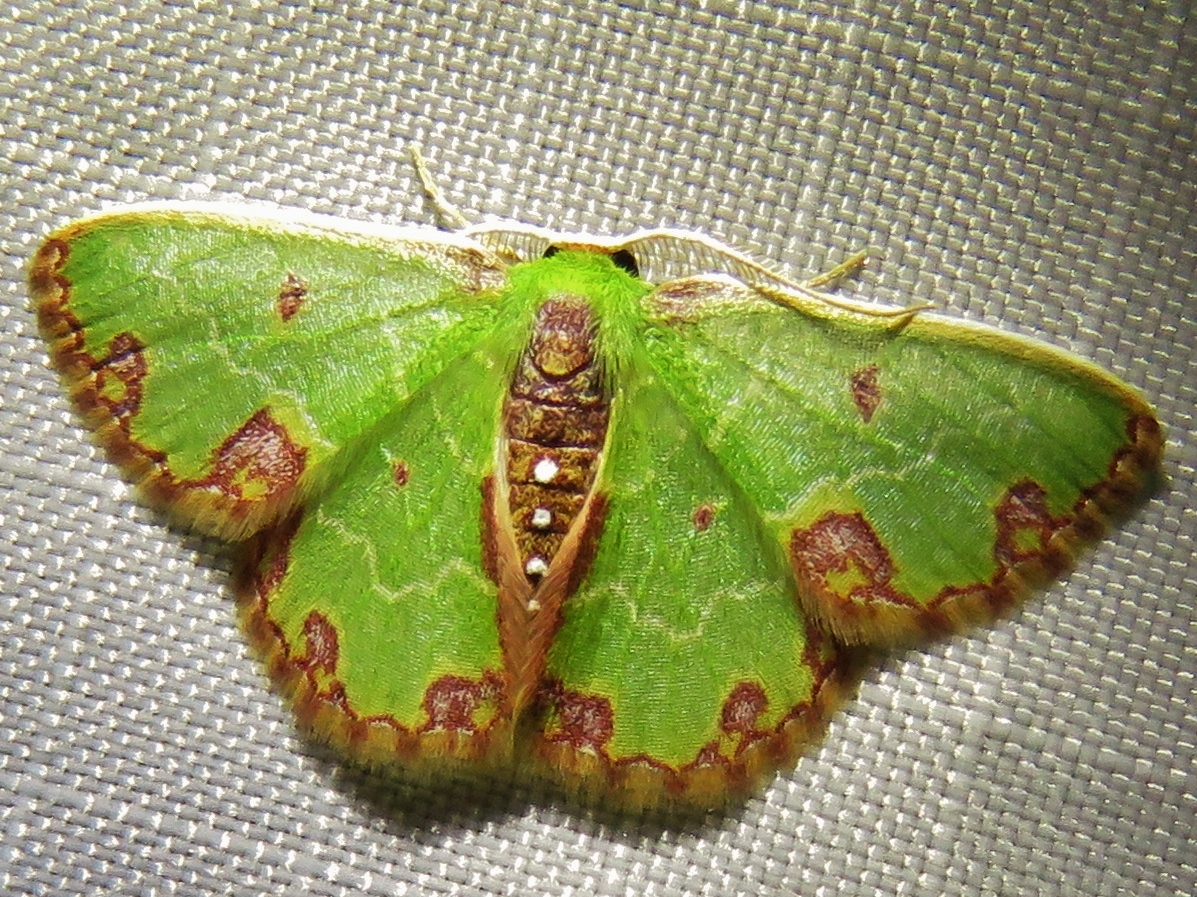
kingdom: Animalia
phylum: Arthropoda
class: Insecta
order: Lepidoptera
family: Geometridae
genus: Synchlora
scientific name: Synchlora gerularia
